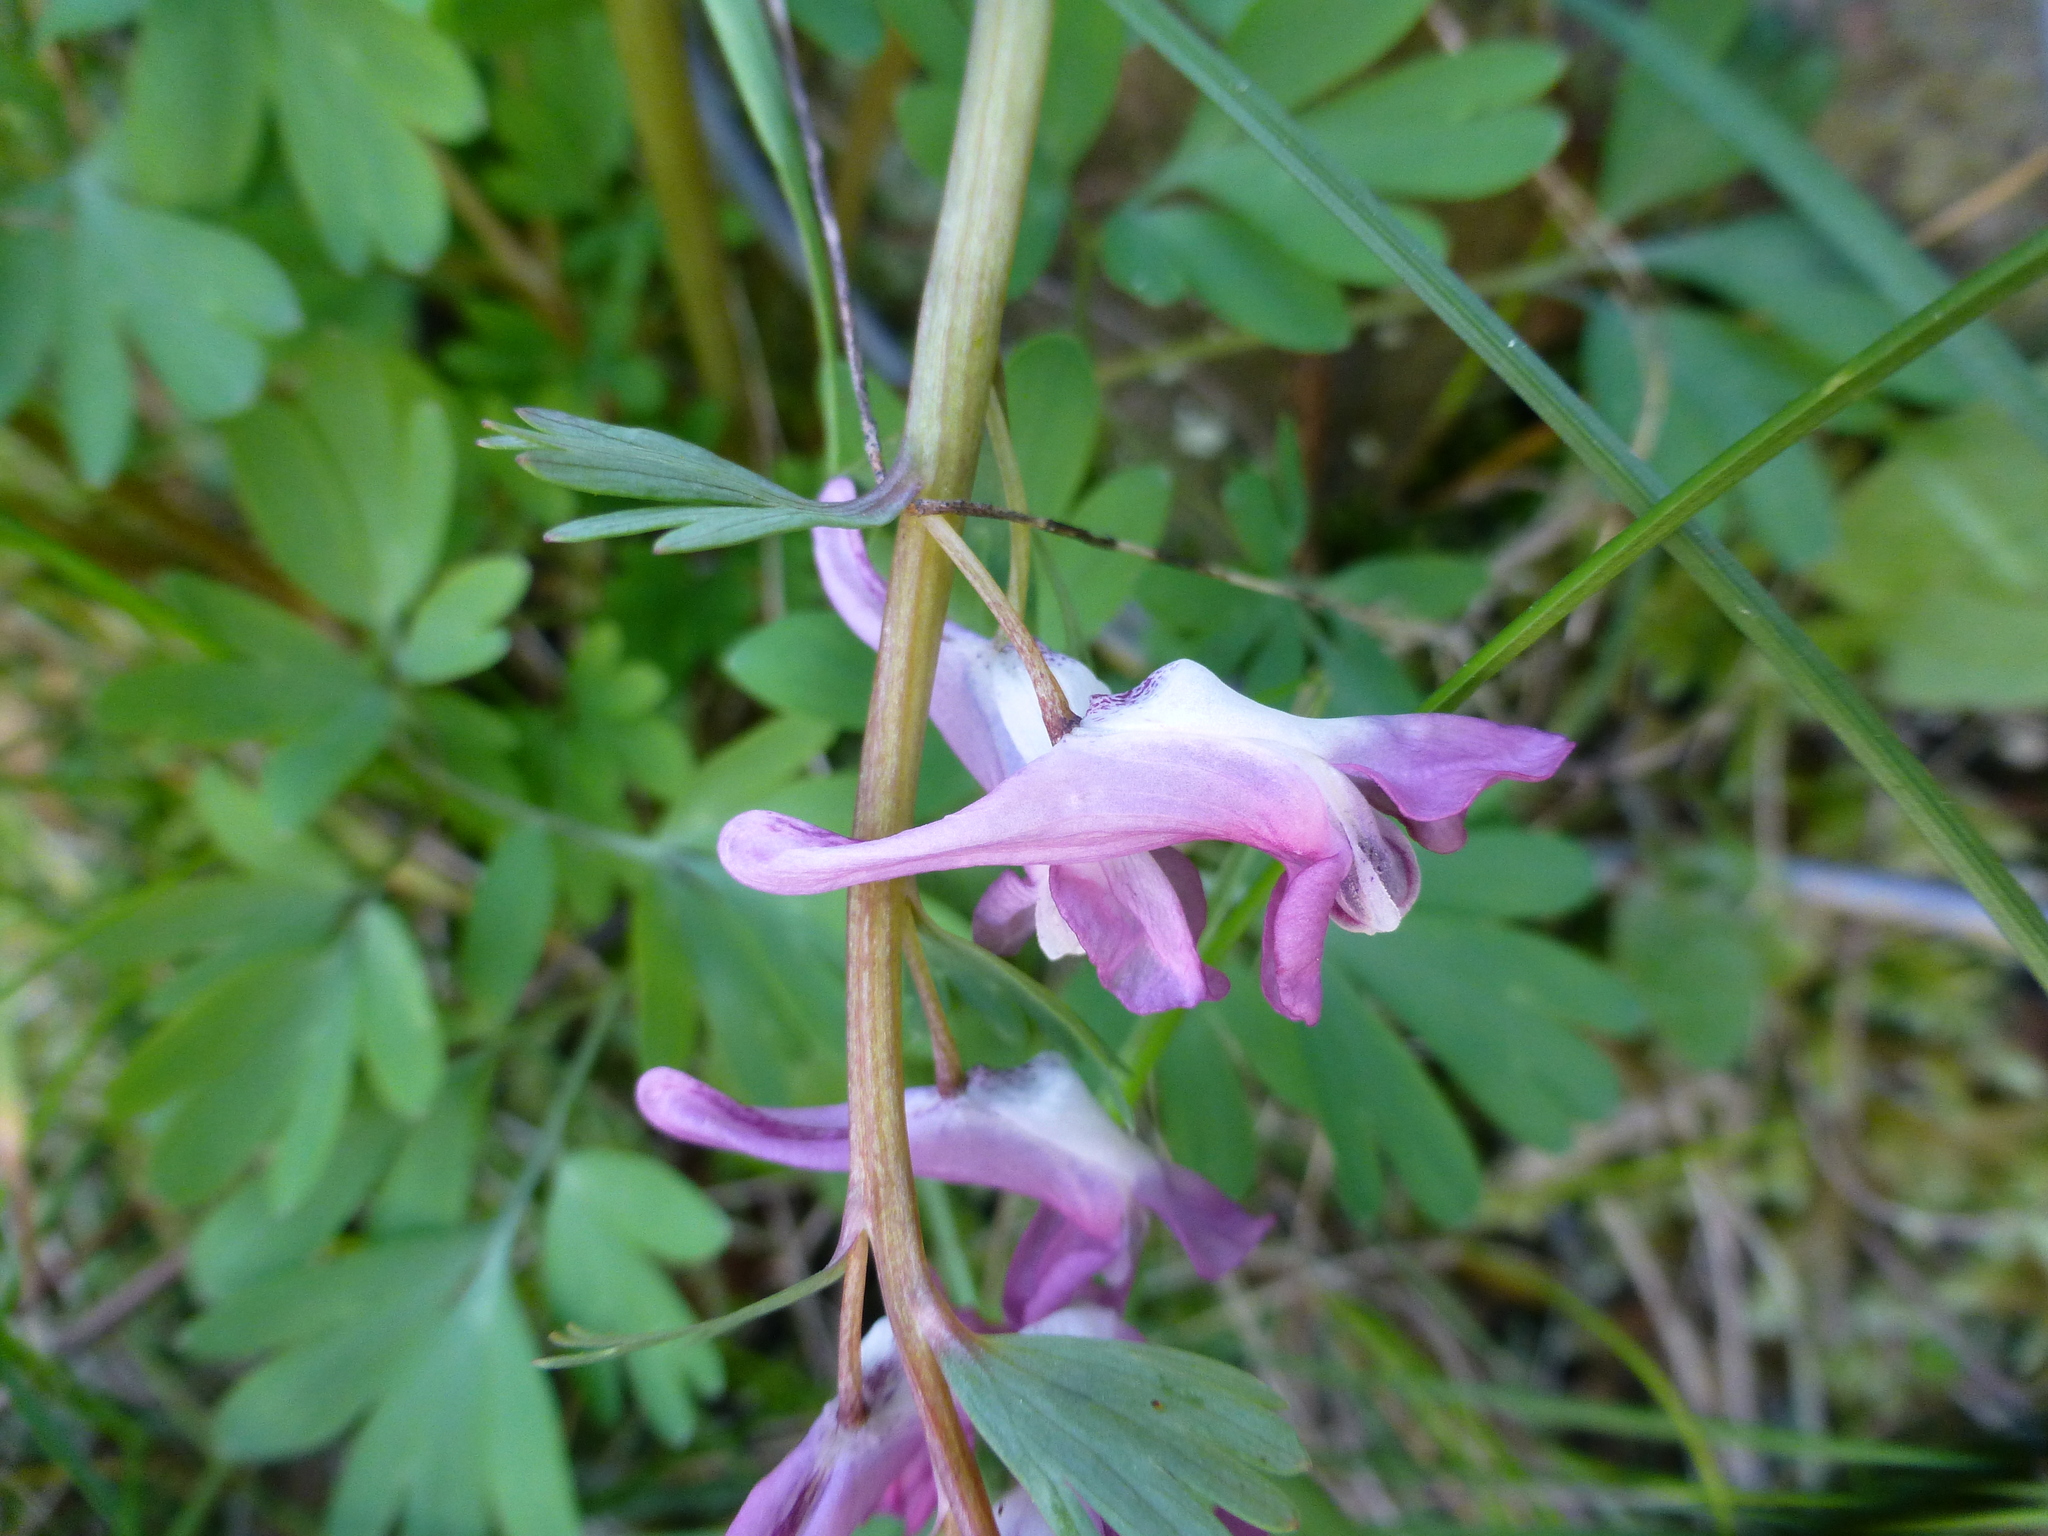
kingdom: Plantae
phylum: Tracheophyta
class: Magnoliopsida
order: Ranunculales
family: Papaveraceae
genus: Corydalis
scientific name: Corydalis solida
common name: Bird-in-a-bush
